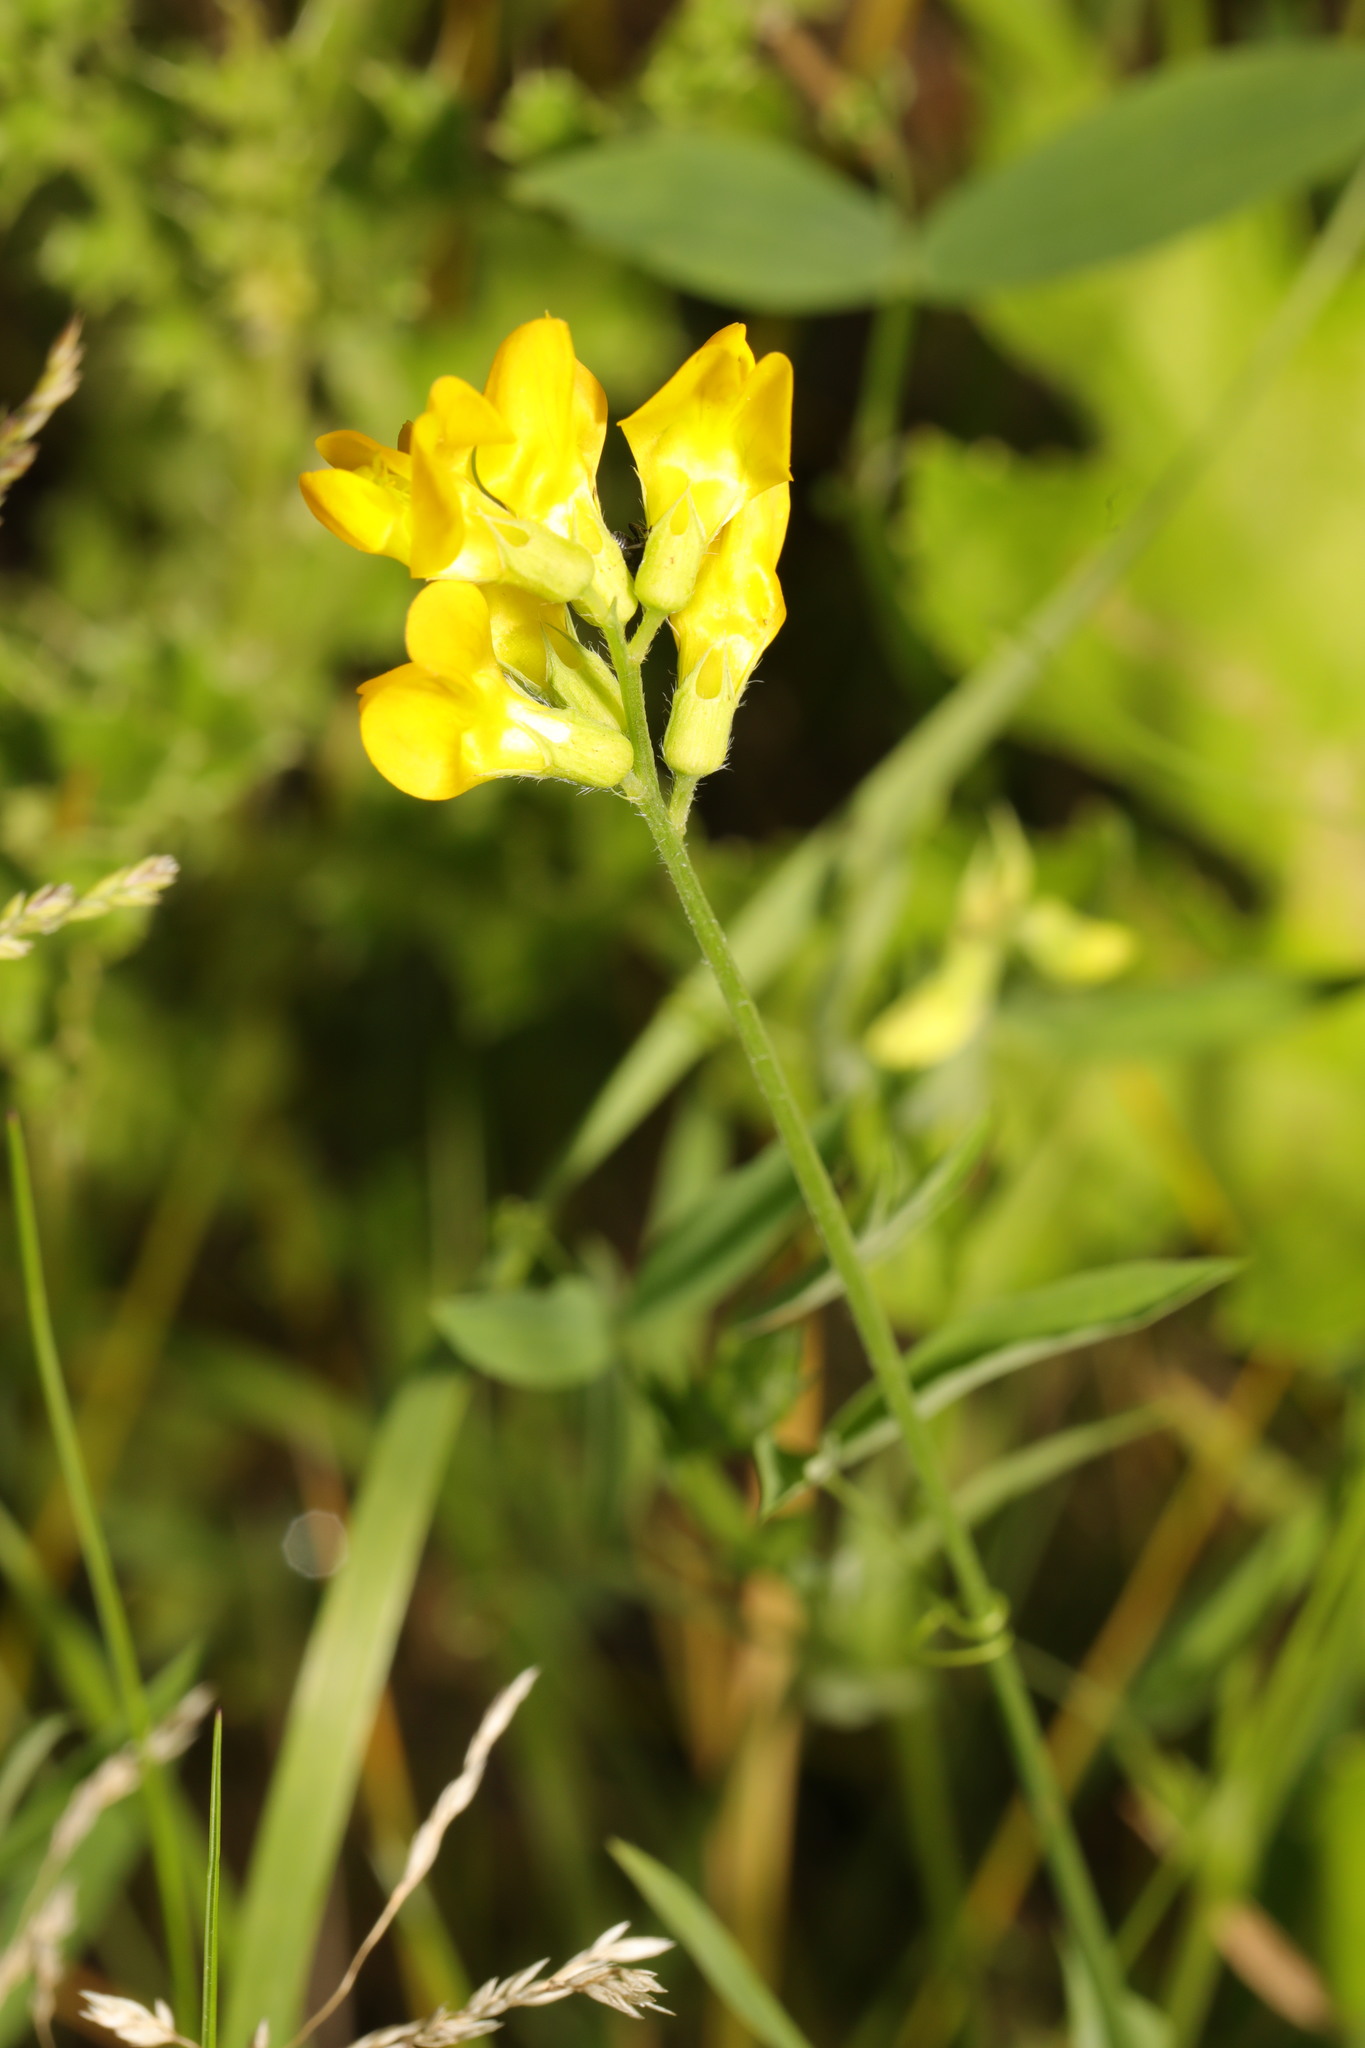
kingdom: Plantae
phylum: Tracheophyta
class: Magnoliopsida
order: Fabales
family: Fabaceae
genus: Lathyrus
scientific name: Lathyrus pratensis
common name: Meadow vetchling
